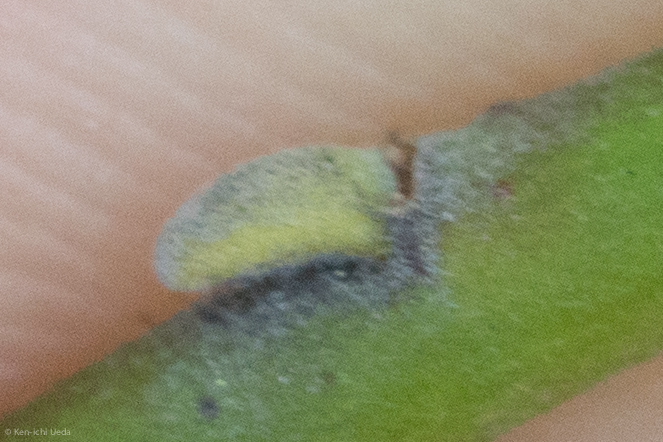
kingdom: Plantae
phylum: Tracheophyta
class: Magnoliopsida
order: Malpighiales
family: Salicaceae
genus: Salix
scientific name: Salix lasiolepis
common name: Arroyo willow
